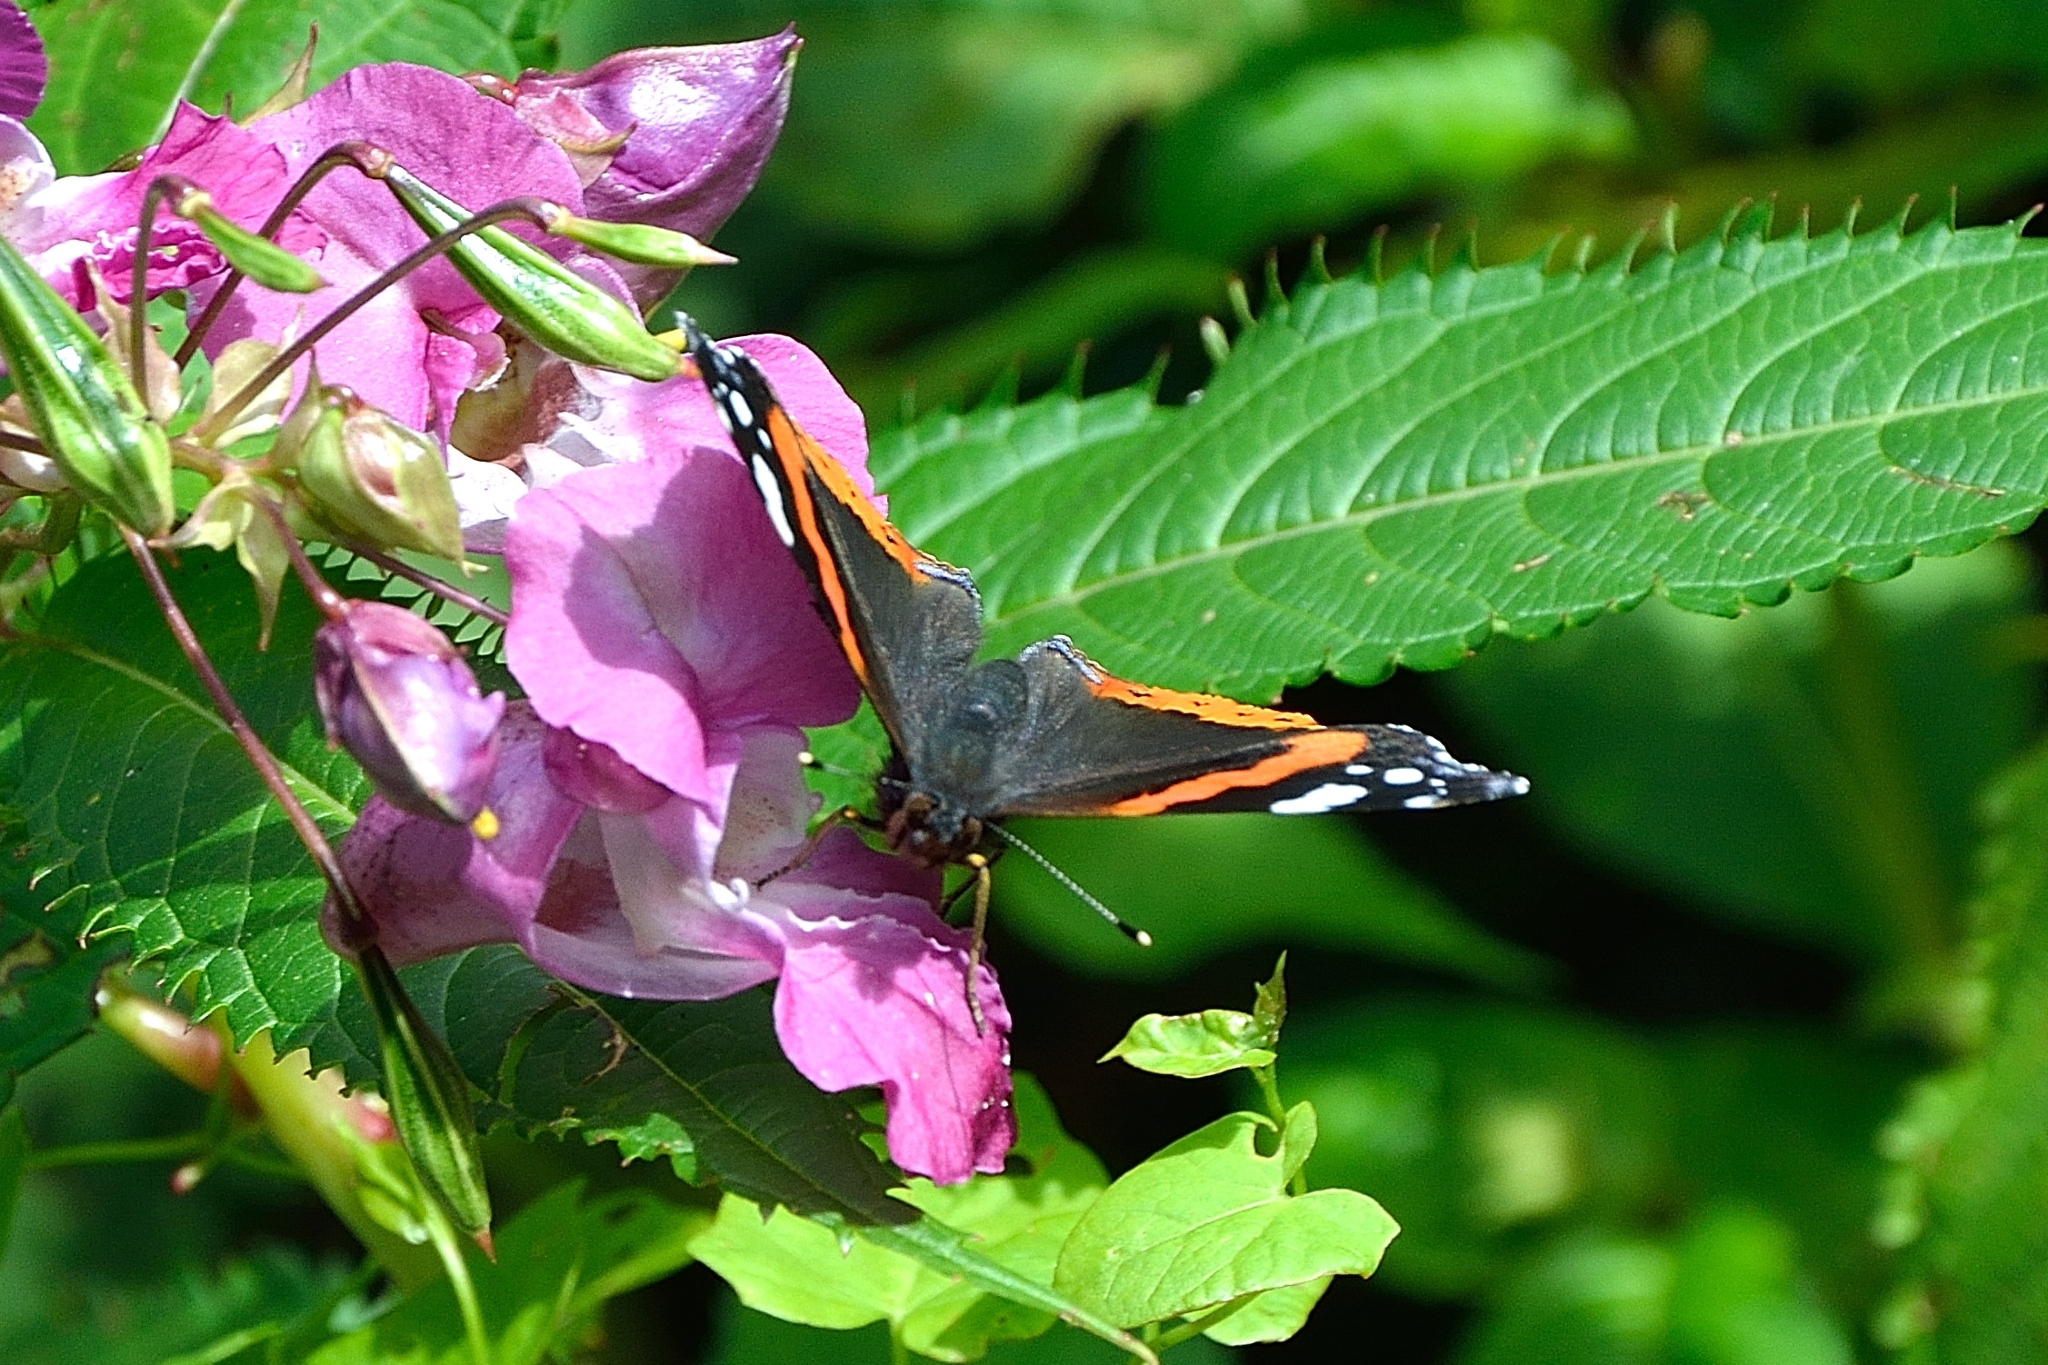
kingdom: Animalia
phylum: Arthropoda
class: Insecta
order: Lepidoptera
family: Nymphalidae
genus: Vanessa
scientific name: Vanessa atalanta
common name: Red admiral
